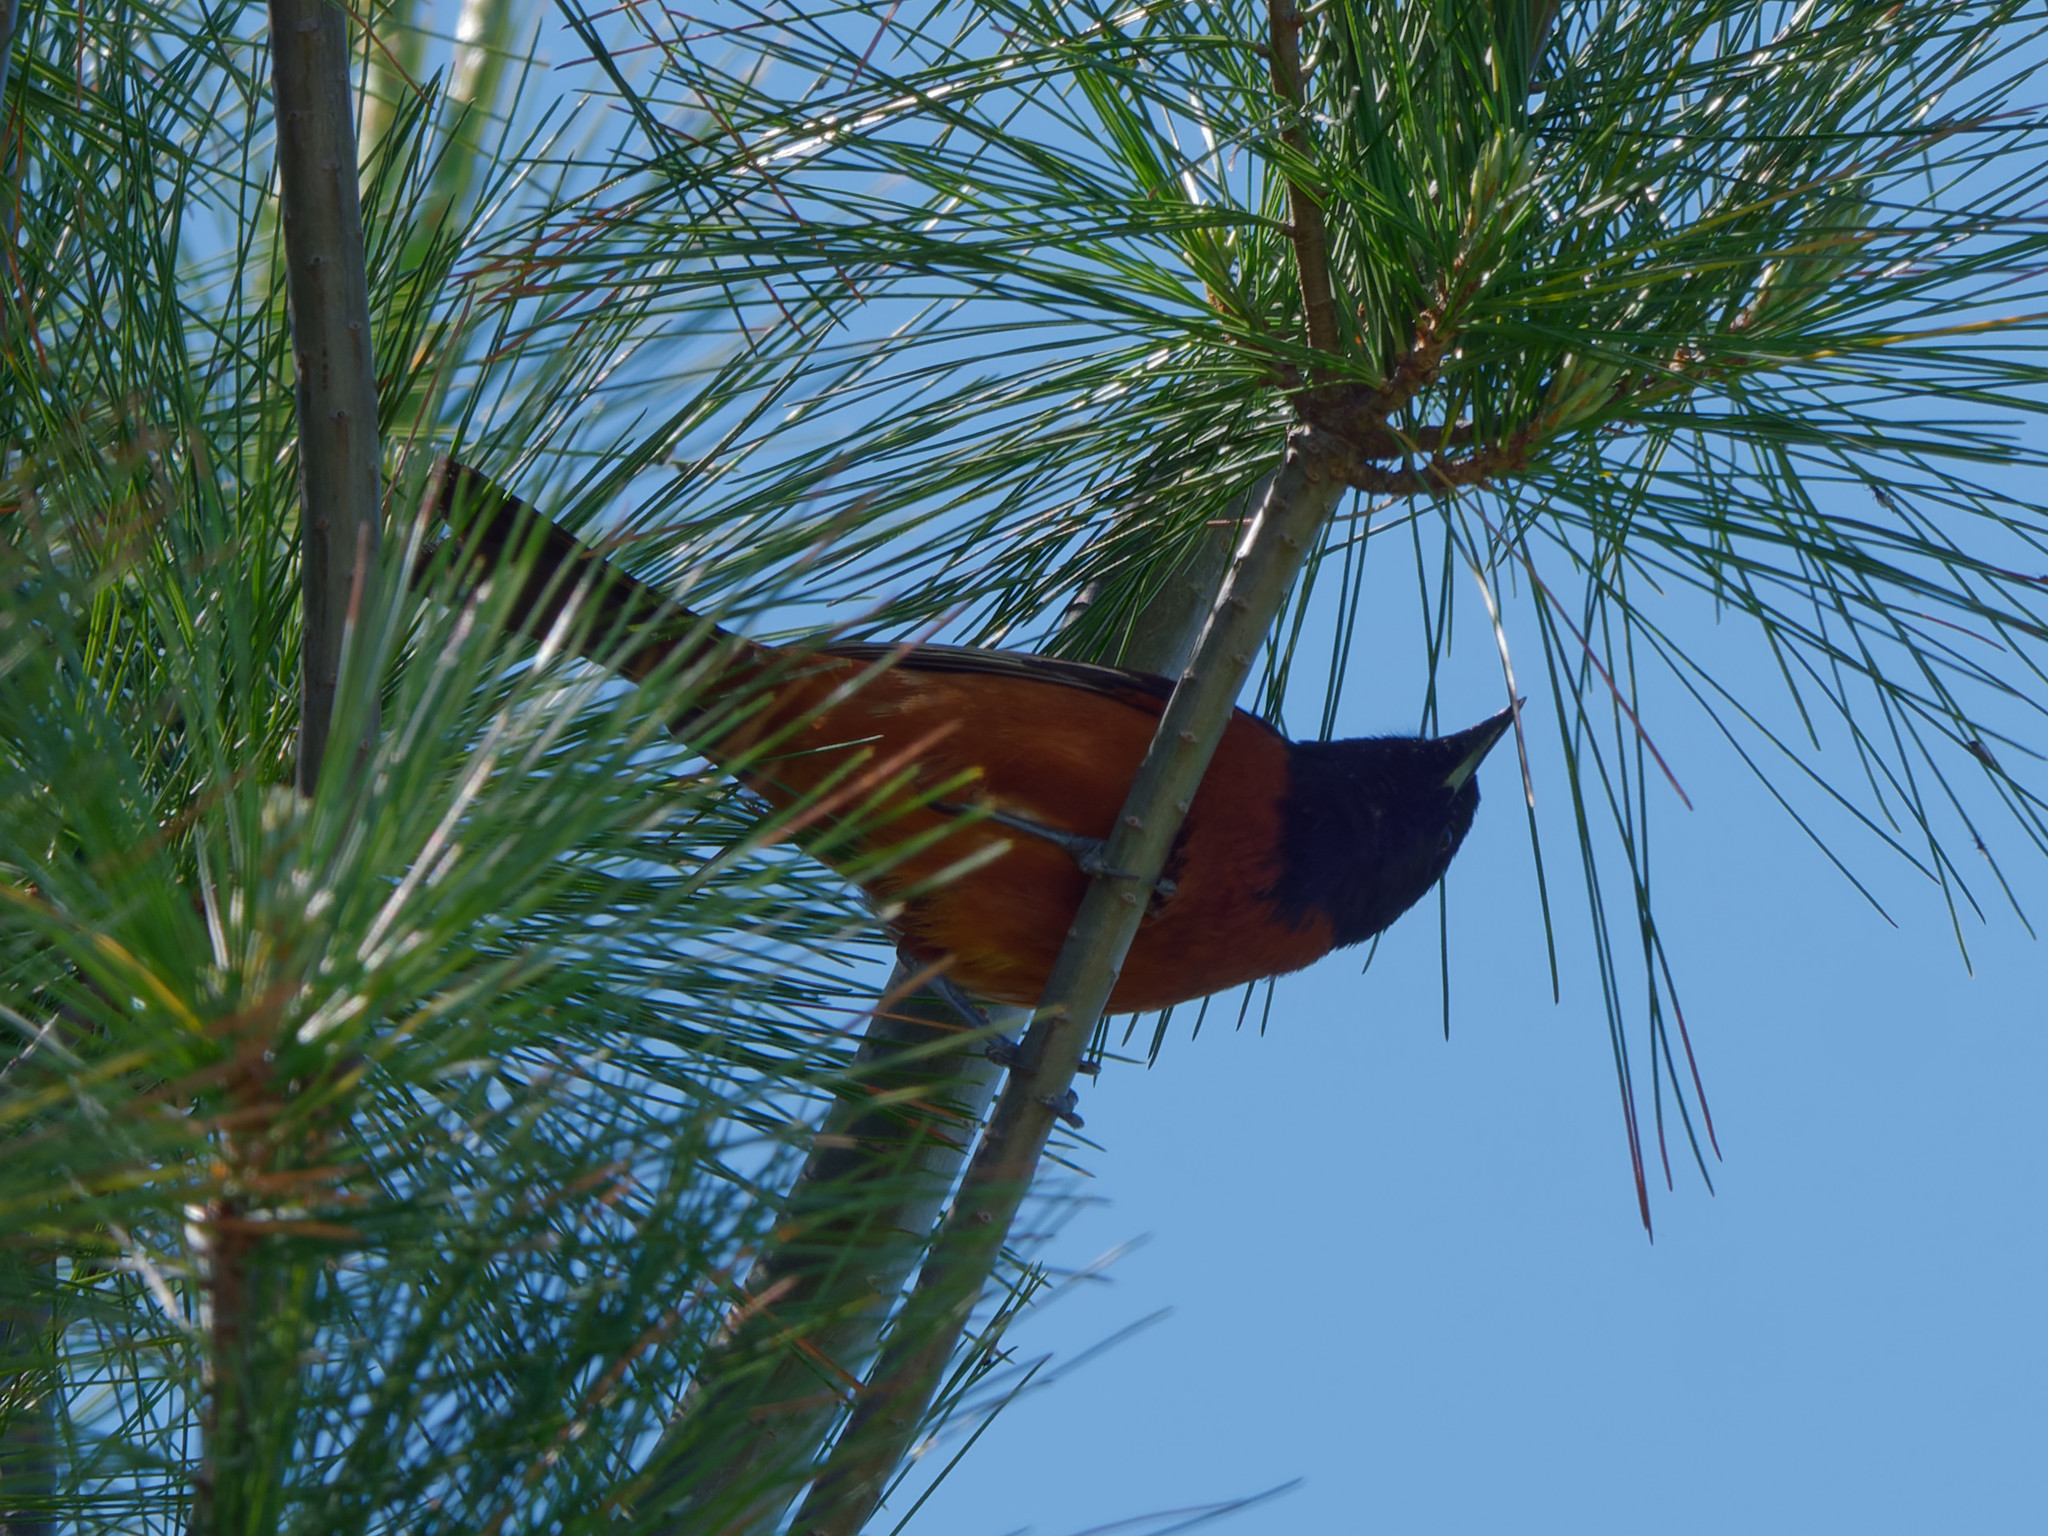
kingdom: Animalia
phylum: Chordata
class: Aves
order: Passeriformes
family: Icteridae
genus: Icterus
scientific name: Icterus spurius
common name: Orchard oriole
